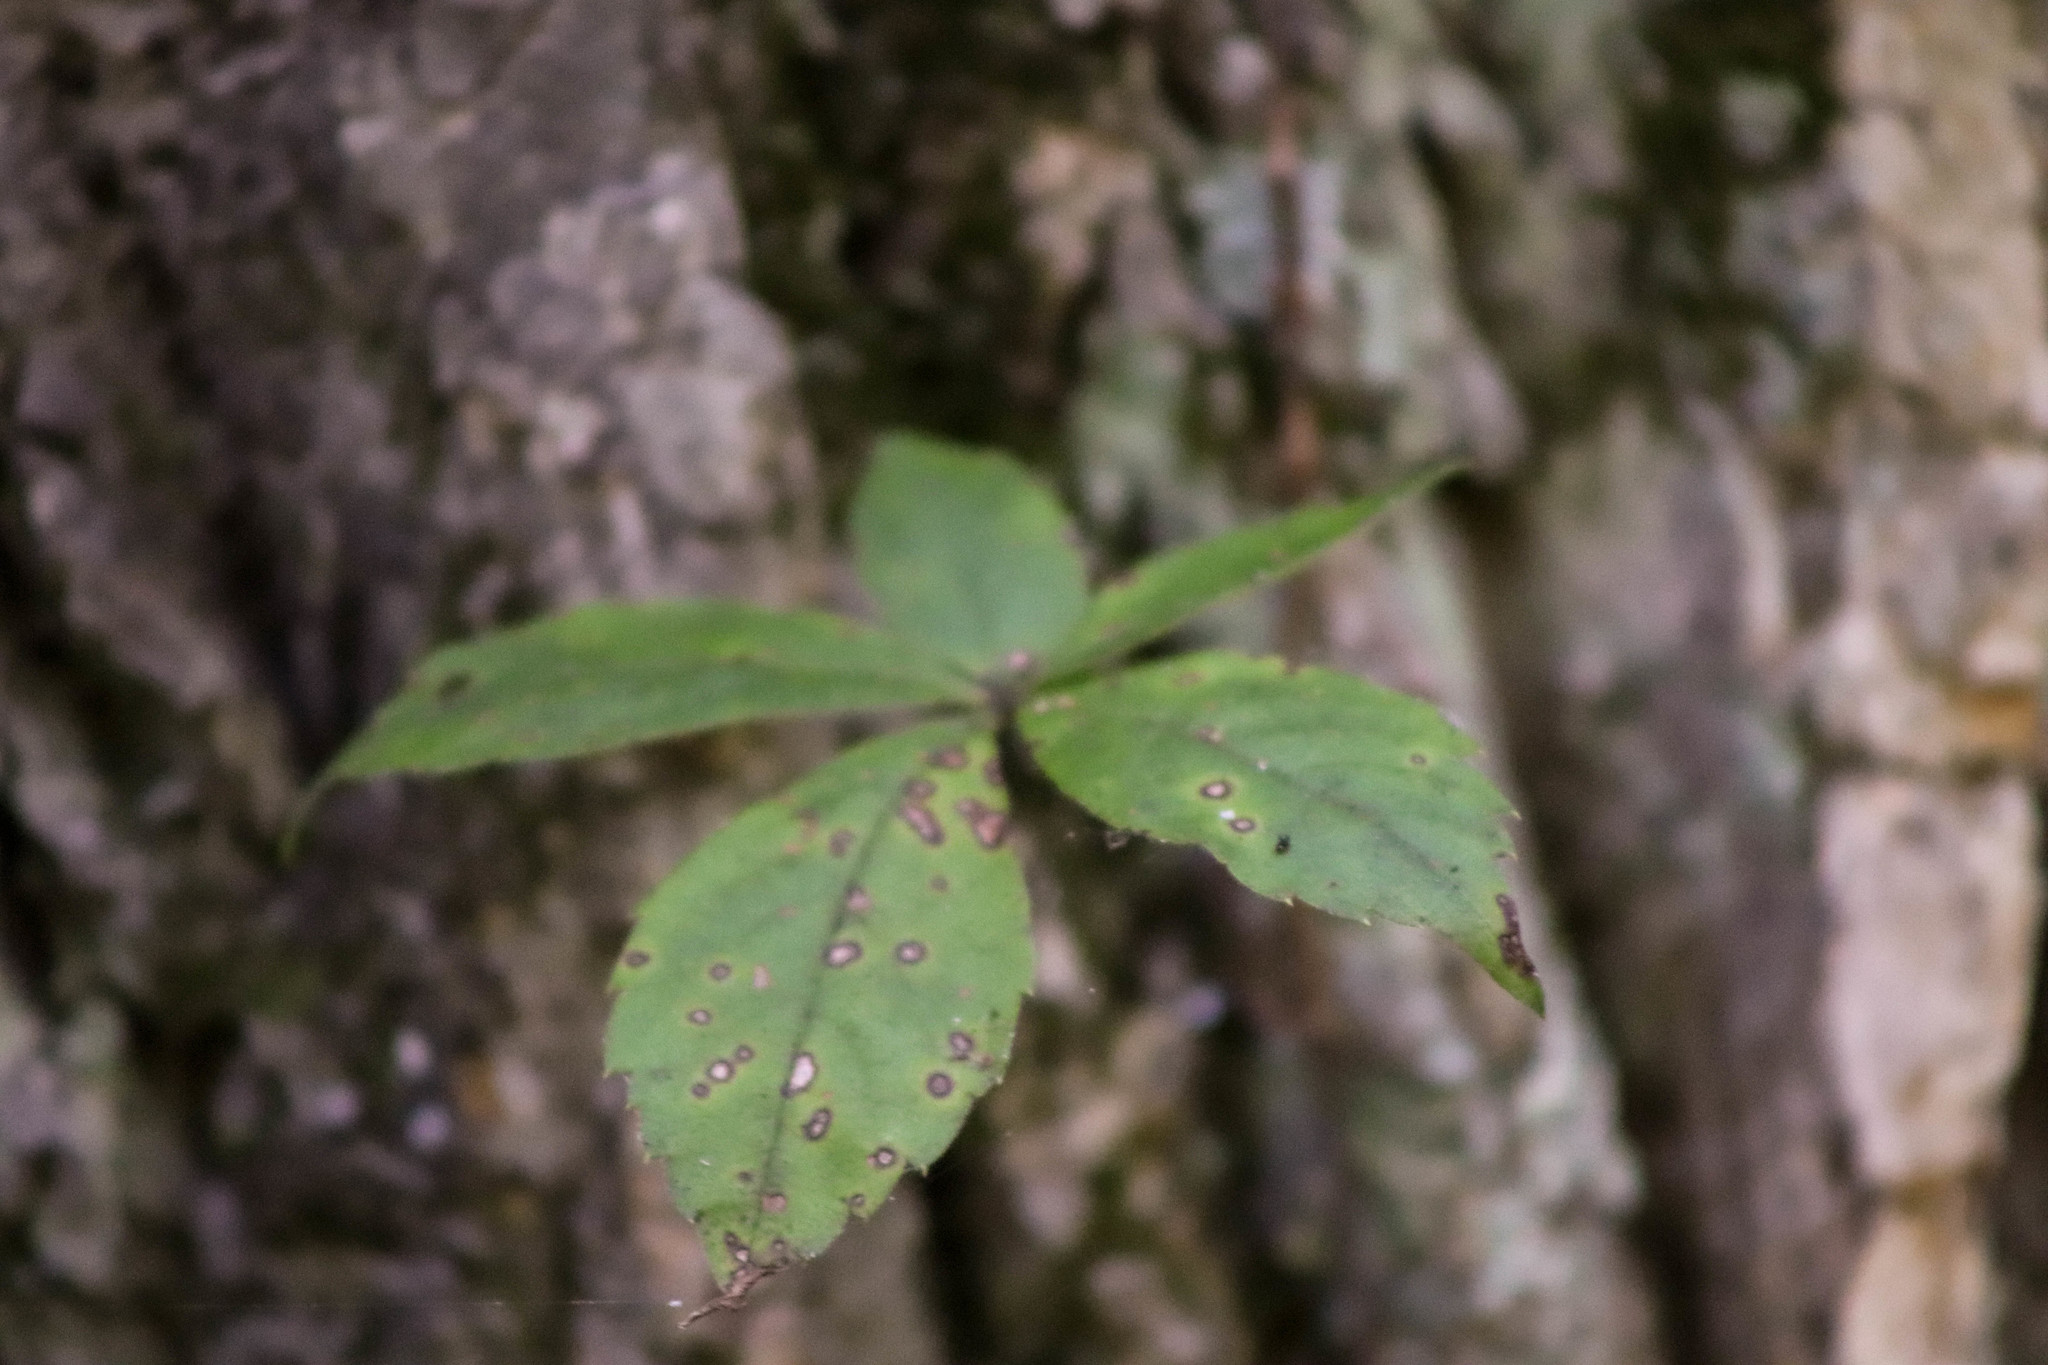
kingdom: Plantae
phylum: Tracheophyta
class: Magnoliopsida
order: Vitales
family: Vitaceae
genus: Parthenocissus
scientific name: Parthenocissus quinquefolia
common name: Virginia-creeper
